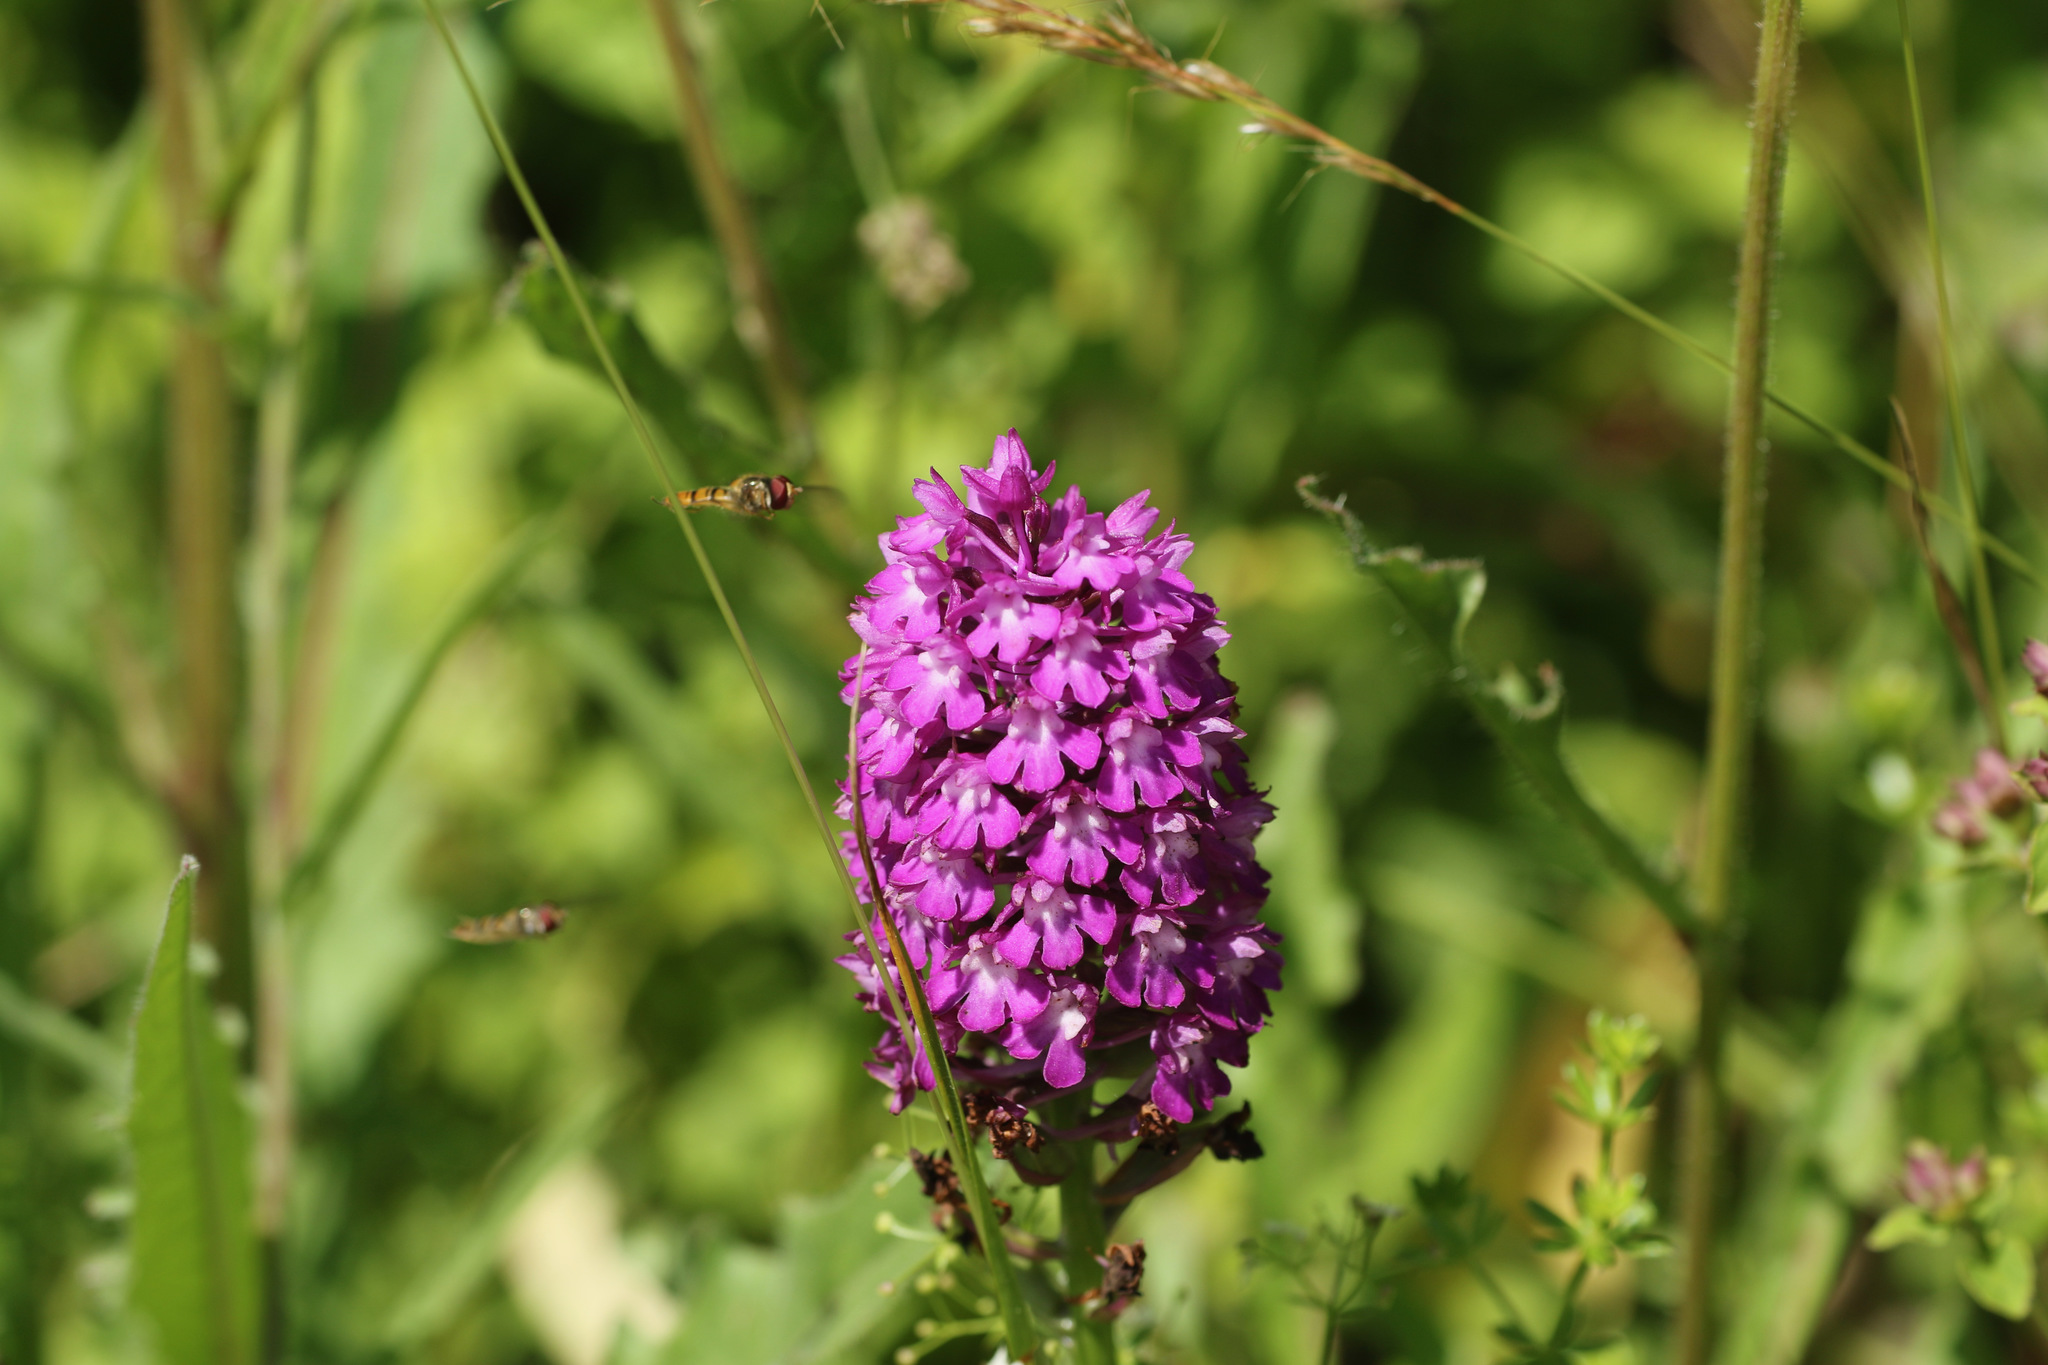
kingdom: Plantae
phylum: Tracheophyta
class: Liliopsida
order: Asparagales
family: Orchidaceae
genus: Anacamptis
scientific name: Anacamptis pyramidalis
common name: Pyramidal orchid
